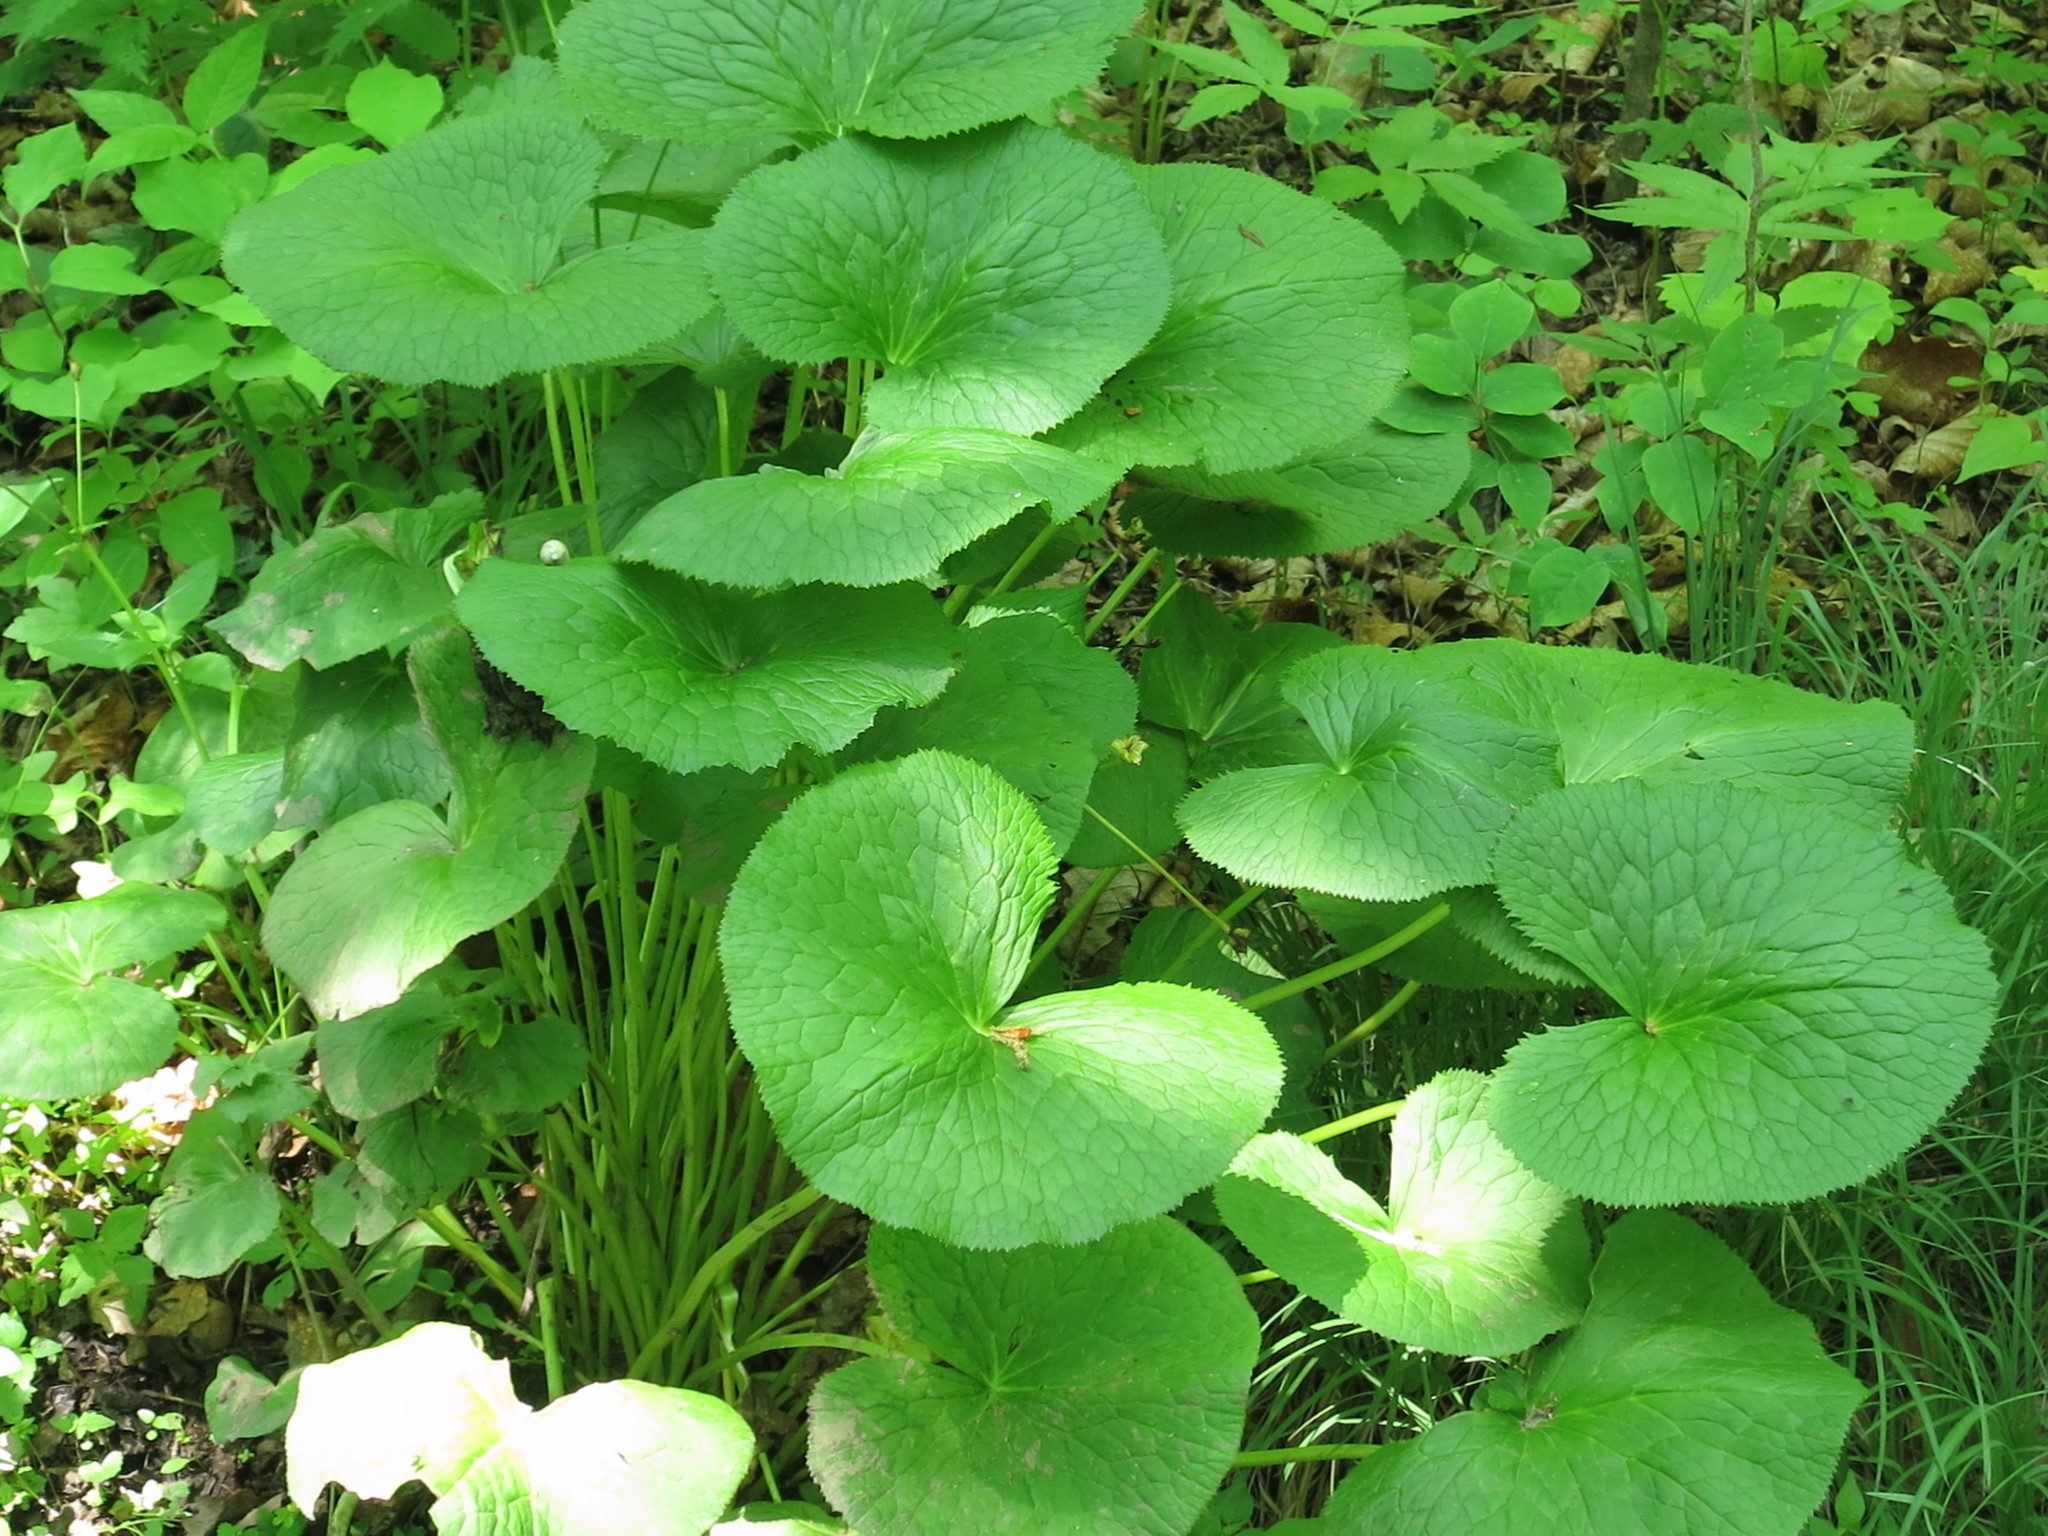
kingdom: Plantae
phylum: Tracheophyta
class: Magnoliopsida
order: Ranunculales
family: Ranunculaceae
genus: Caltha
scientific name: Caltha palustris
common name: Marsh marigold
